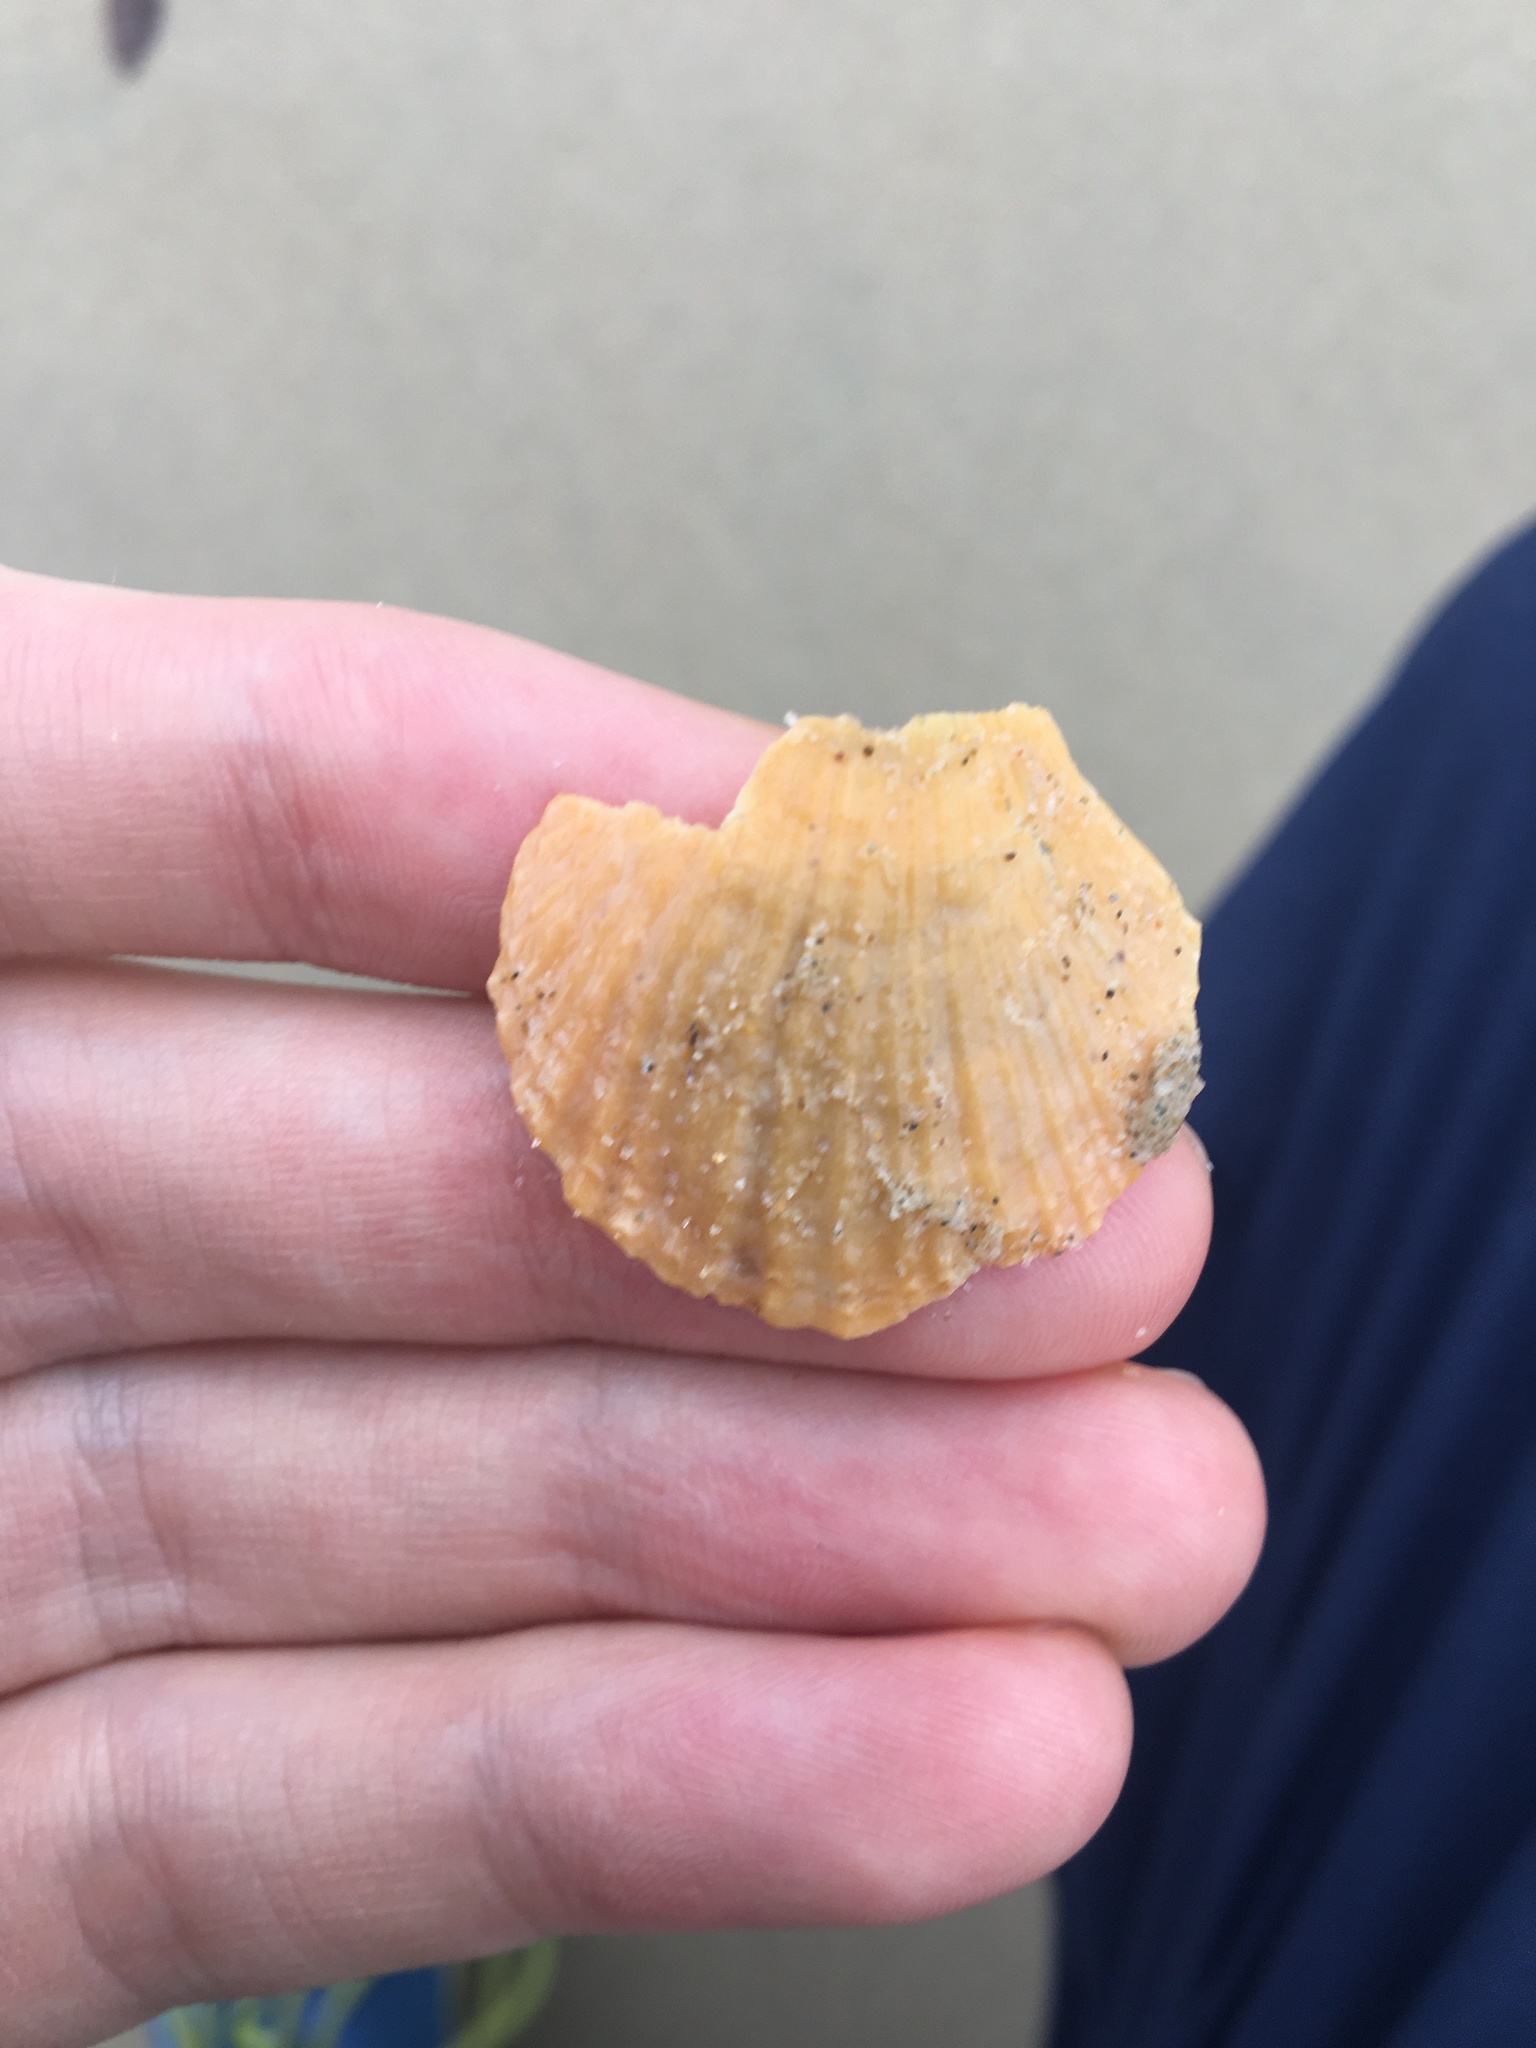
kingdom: Animalia
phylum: Mollusca
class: Bivalvia
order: Pectinida
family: Pectinidae
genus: Scaeochlamys
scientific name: Scaeochlamys livida
